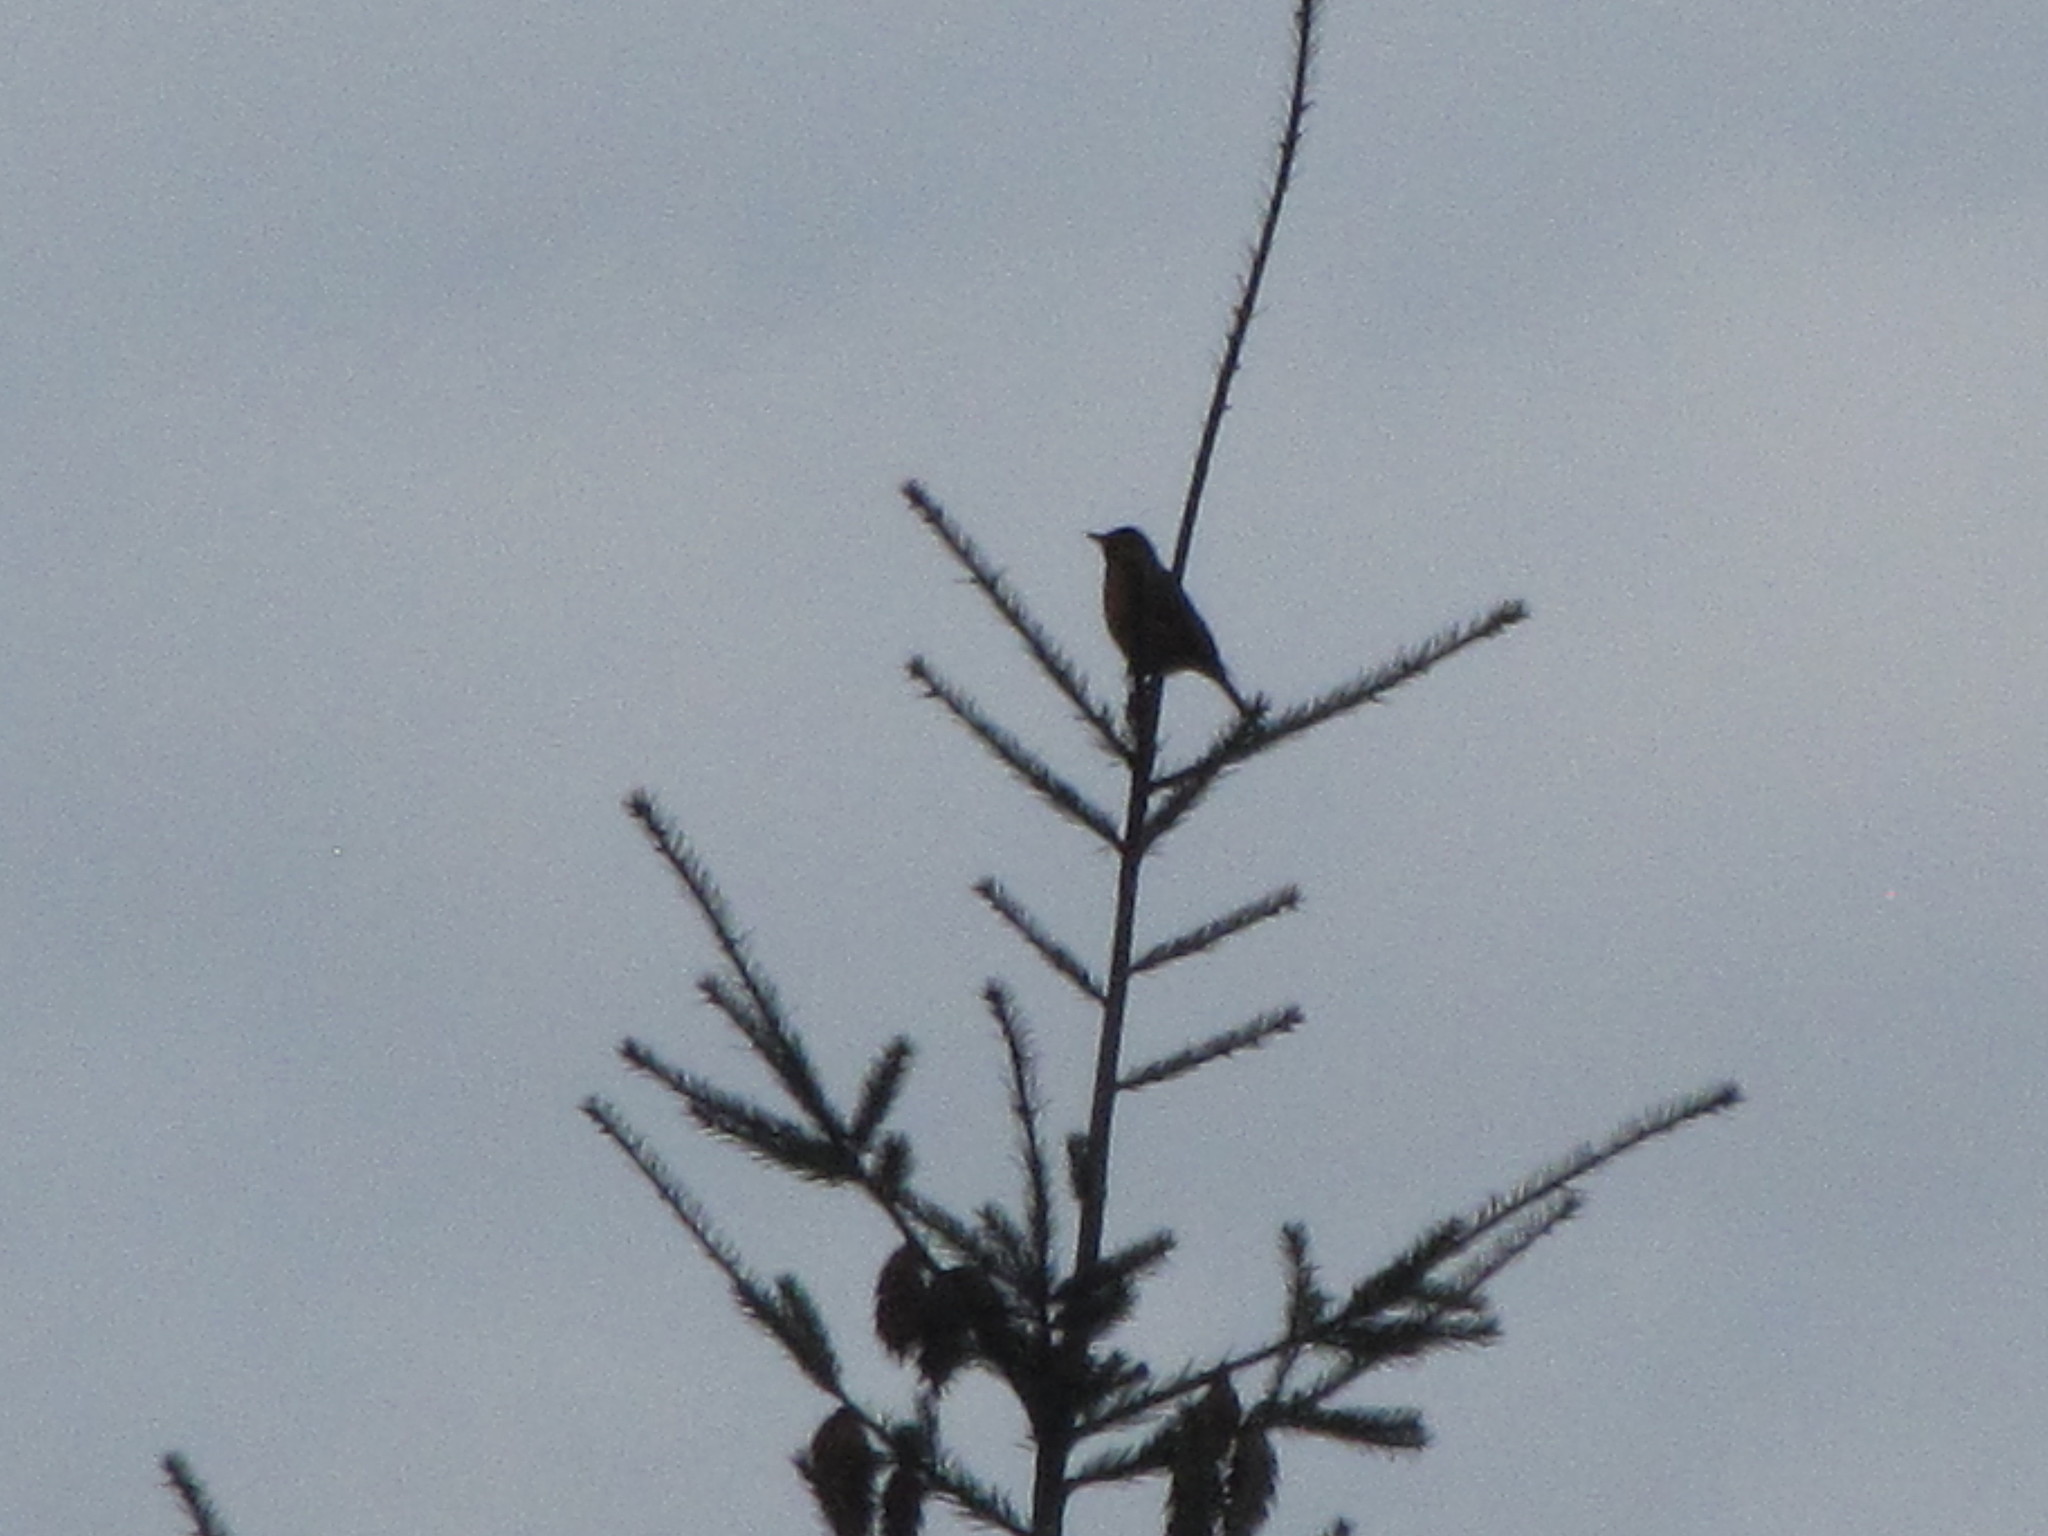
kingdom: Animalia
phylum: Chordata
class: Aves
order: Passeriformes
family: Turdidae
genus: Turdus
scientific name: Turdus migratorius
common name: American robin
